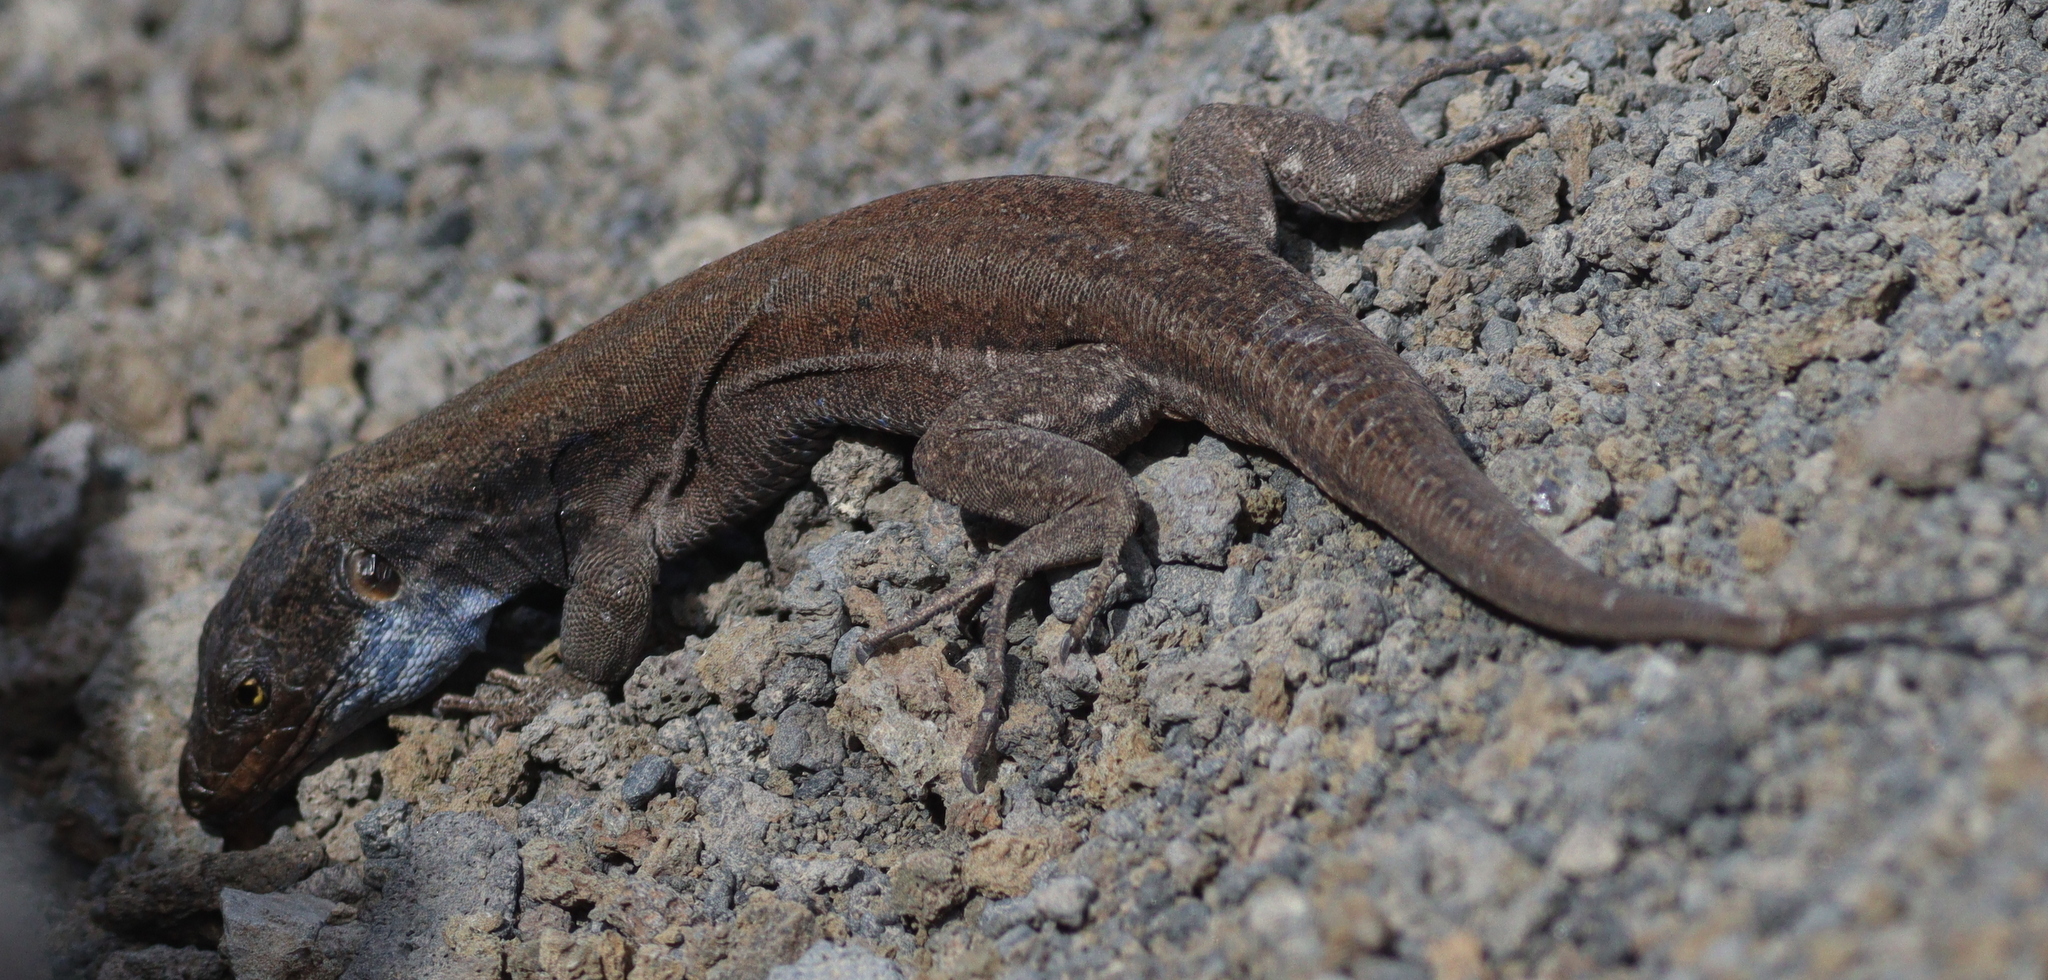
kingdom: Animalia
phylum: Chordata
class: Squamata
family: Lacertidae
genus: Gallotia
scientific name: Gallotia galloti
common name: Gallot's lizard
